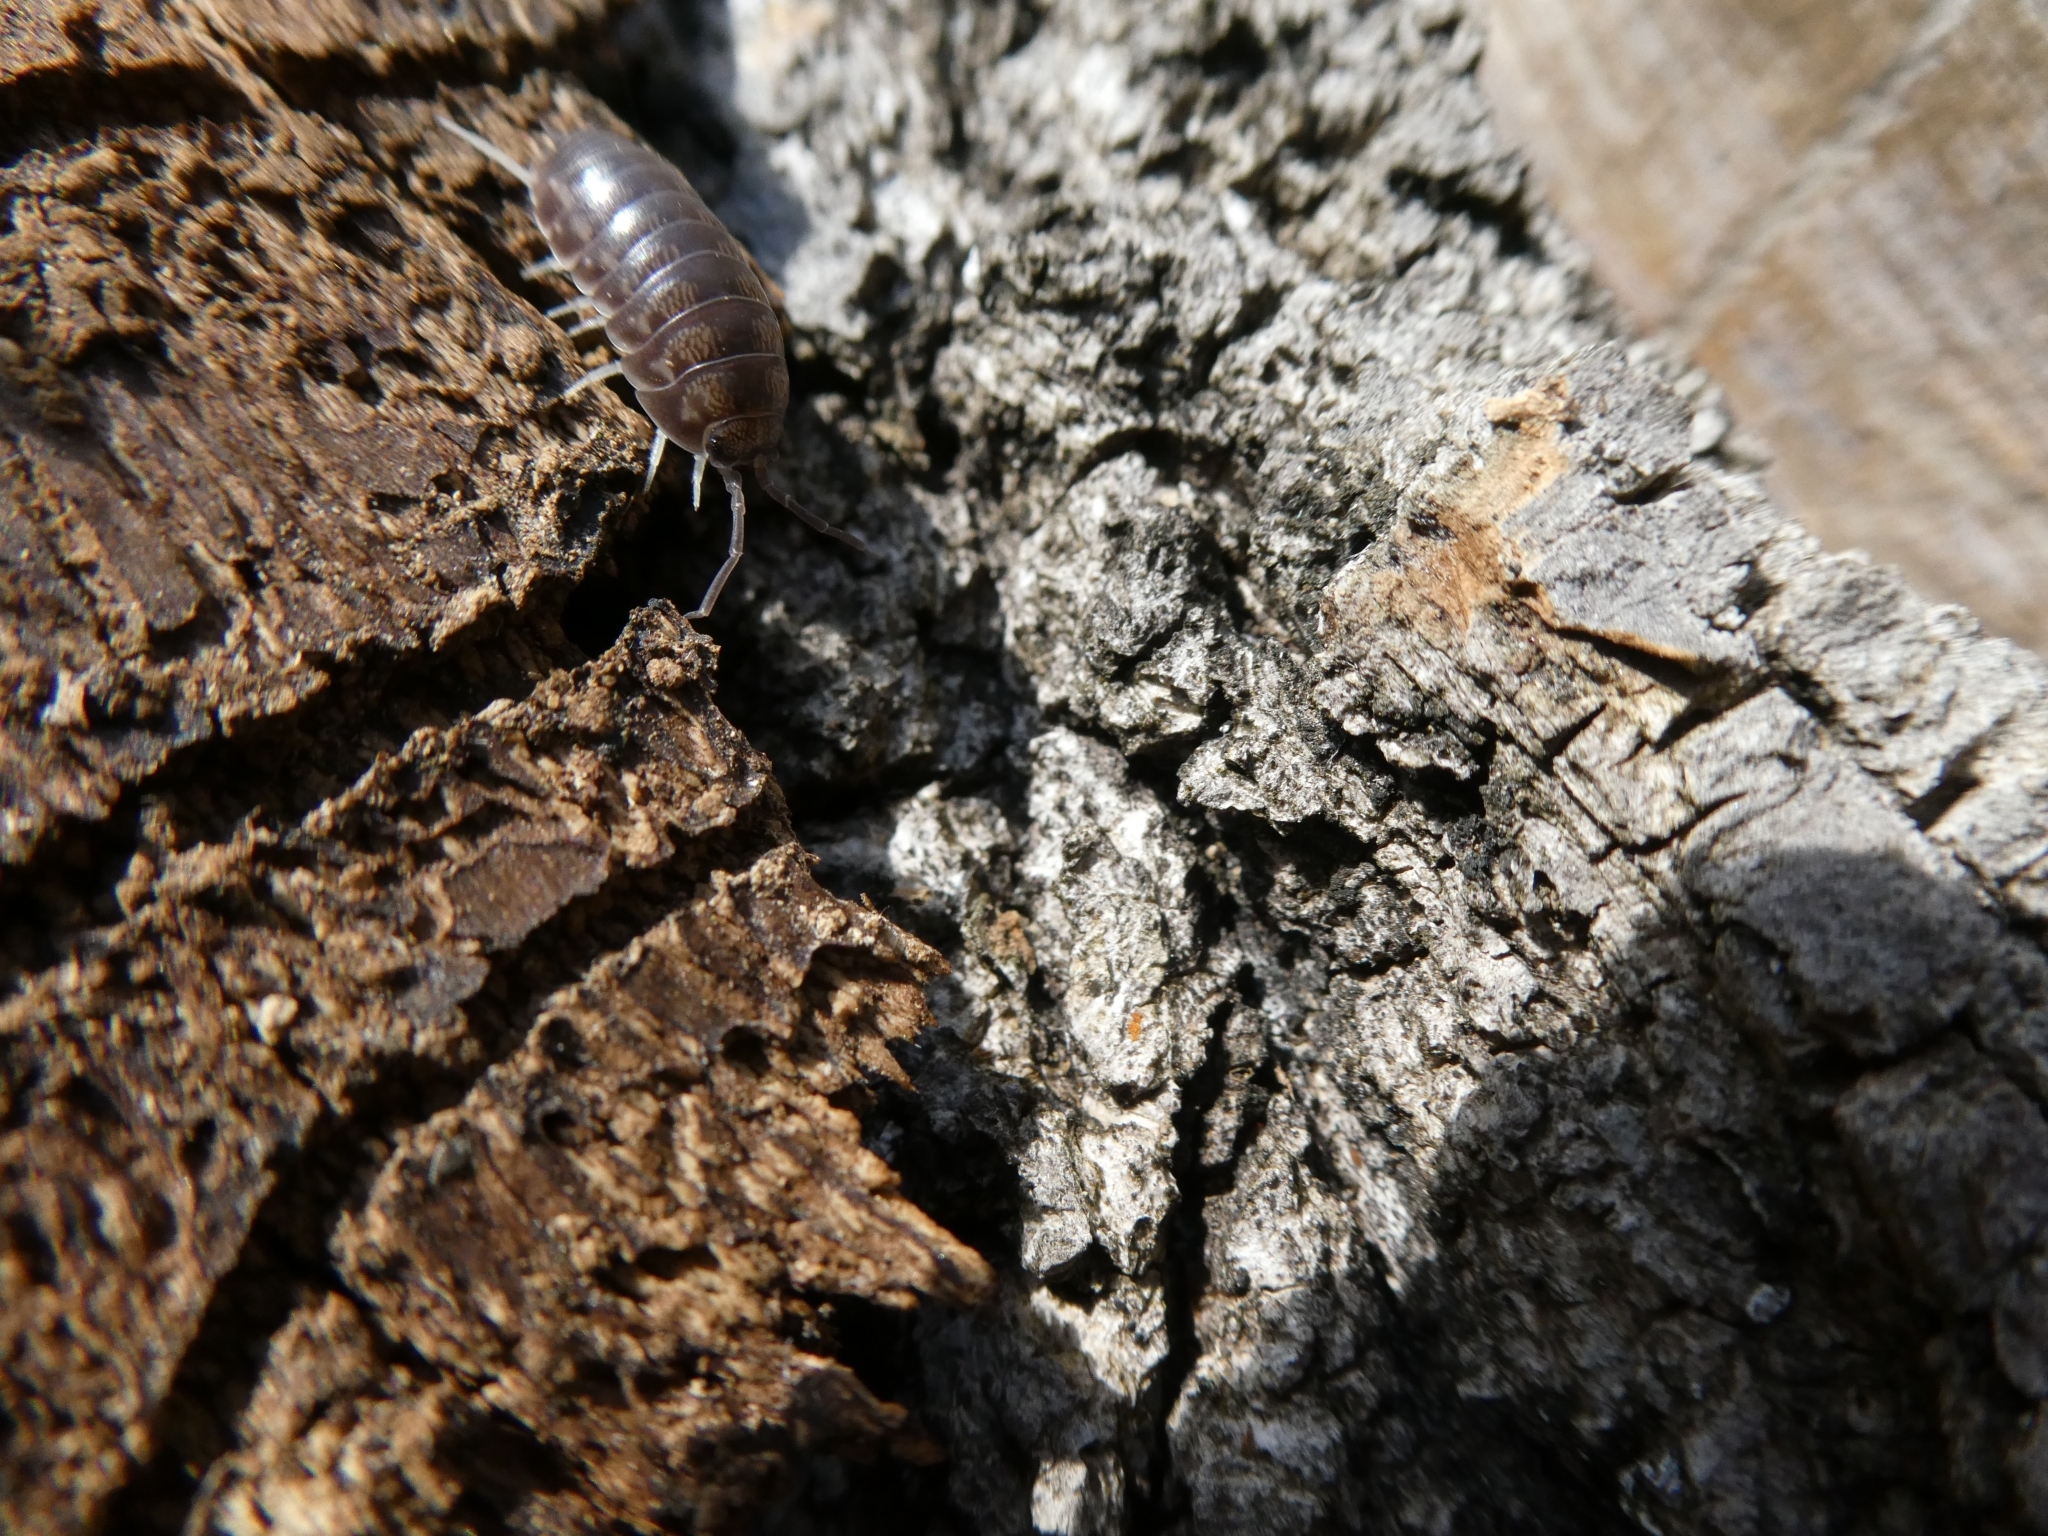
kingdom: Animalia
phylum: Arthropoda
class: Malacostraca
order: Isopoda
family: Cylisticidae
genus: Cylisticus
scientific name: Cylisticus convexus
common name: Curly woodlouse
